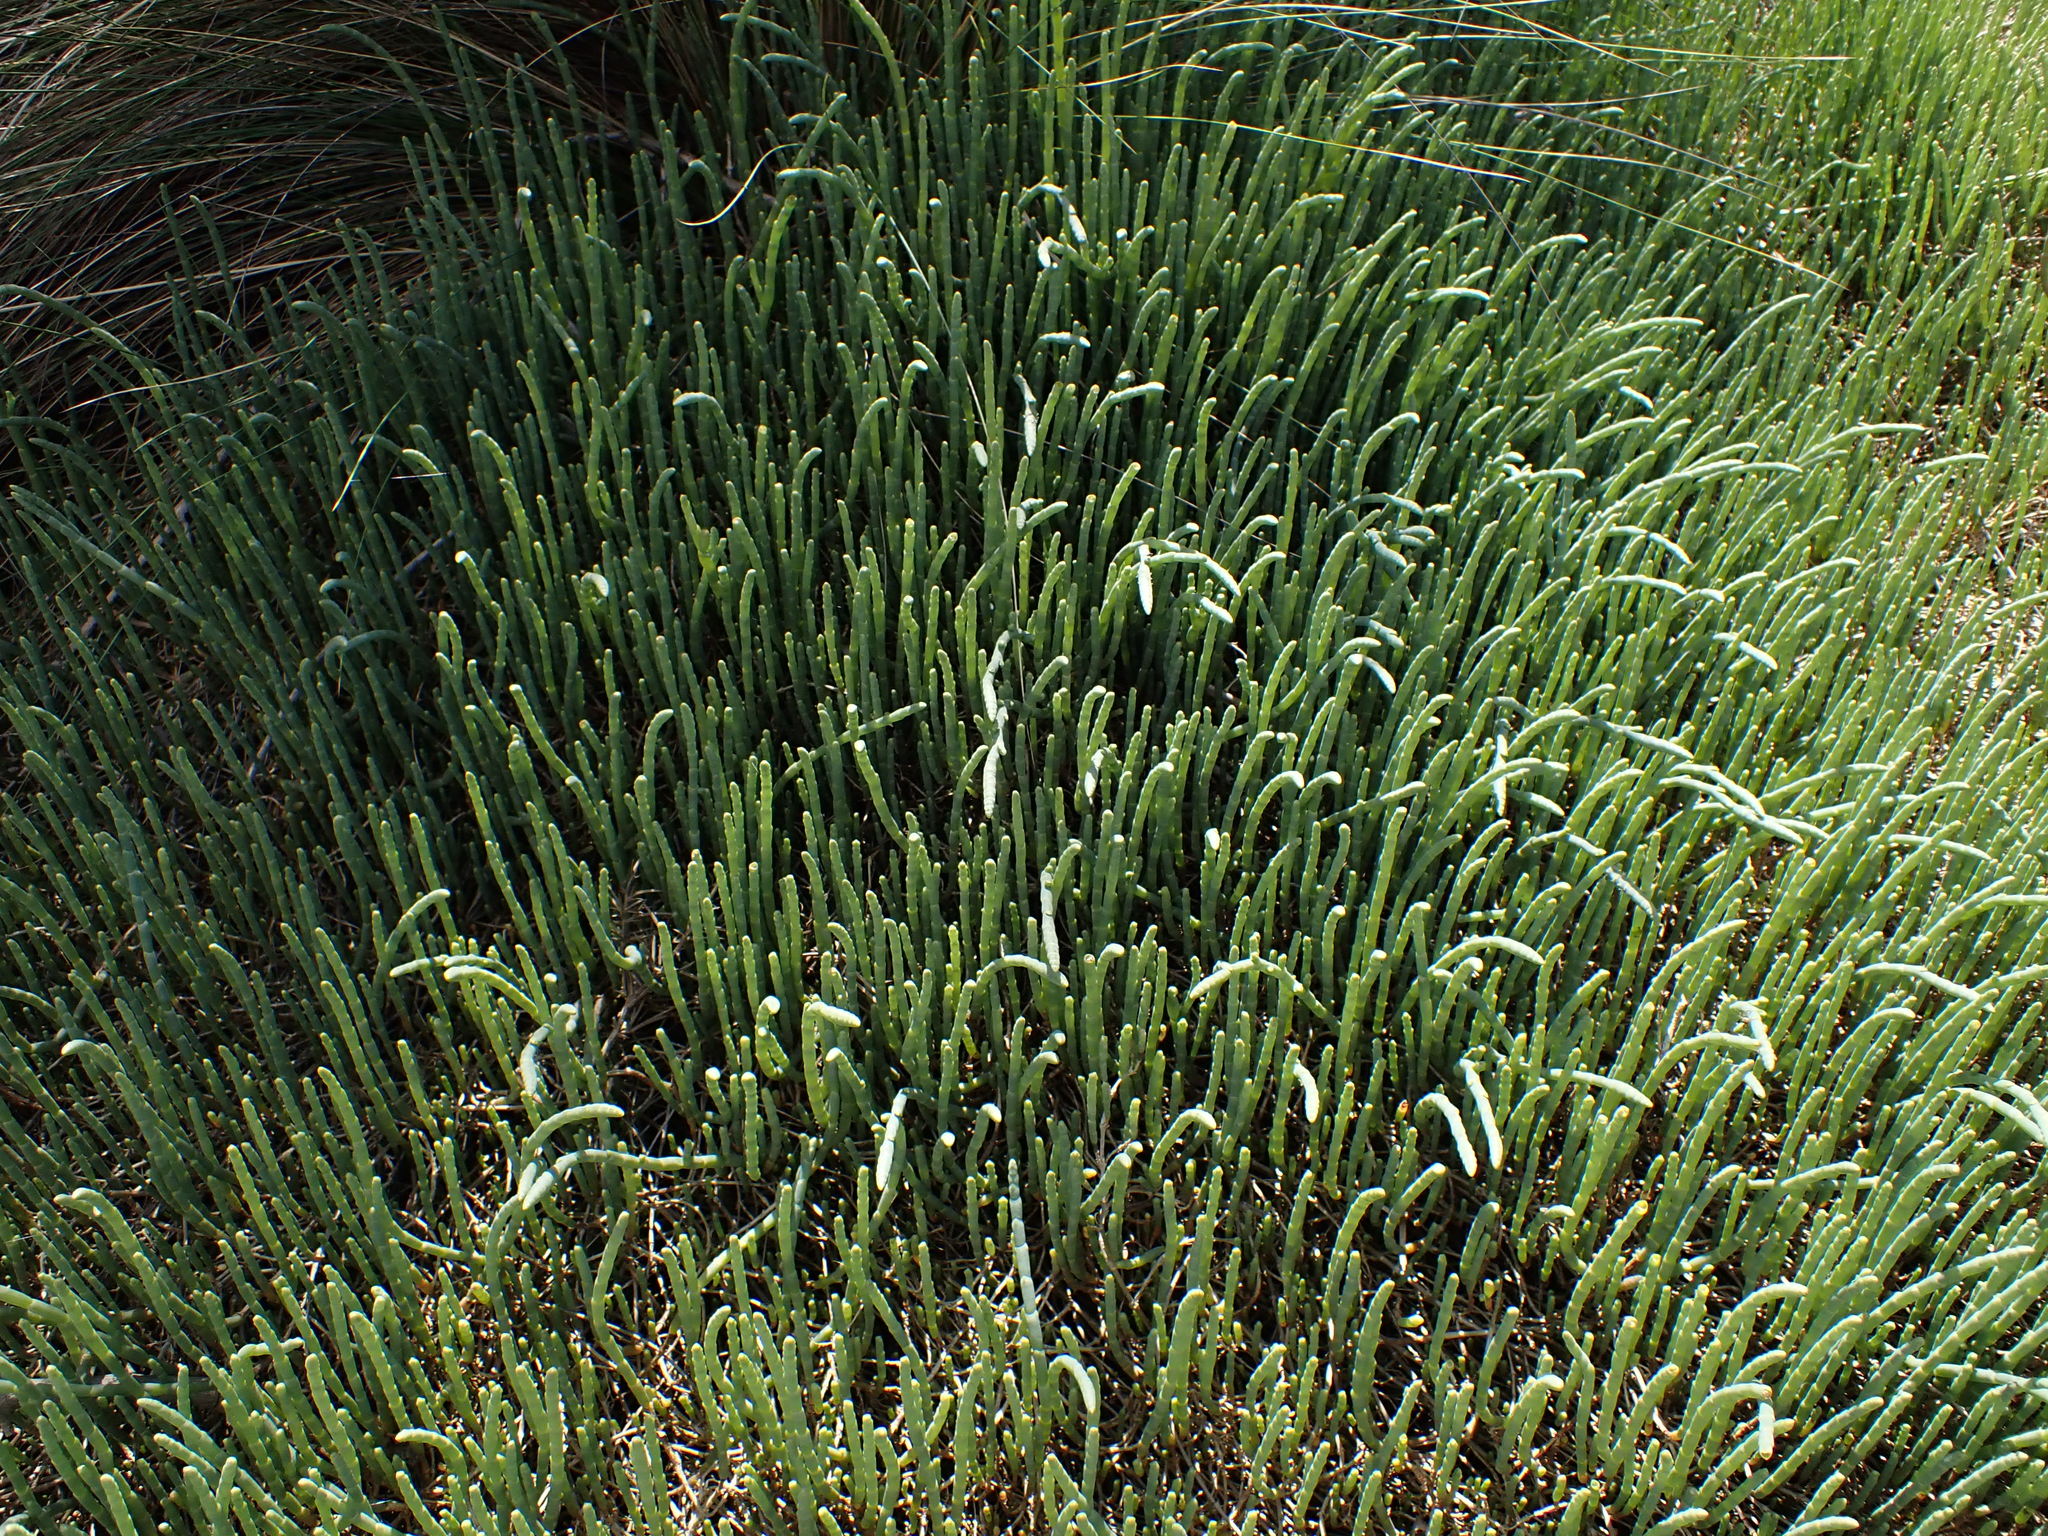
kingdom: Plantae
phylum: Tracheophyta
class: Magnoliopsida
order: Caryophyllales
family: Amaranthaceae
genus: Salicornia
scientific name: Salicornia quinqueflora
